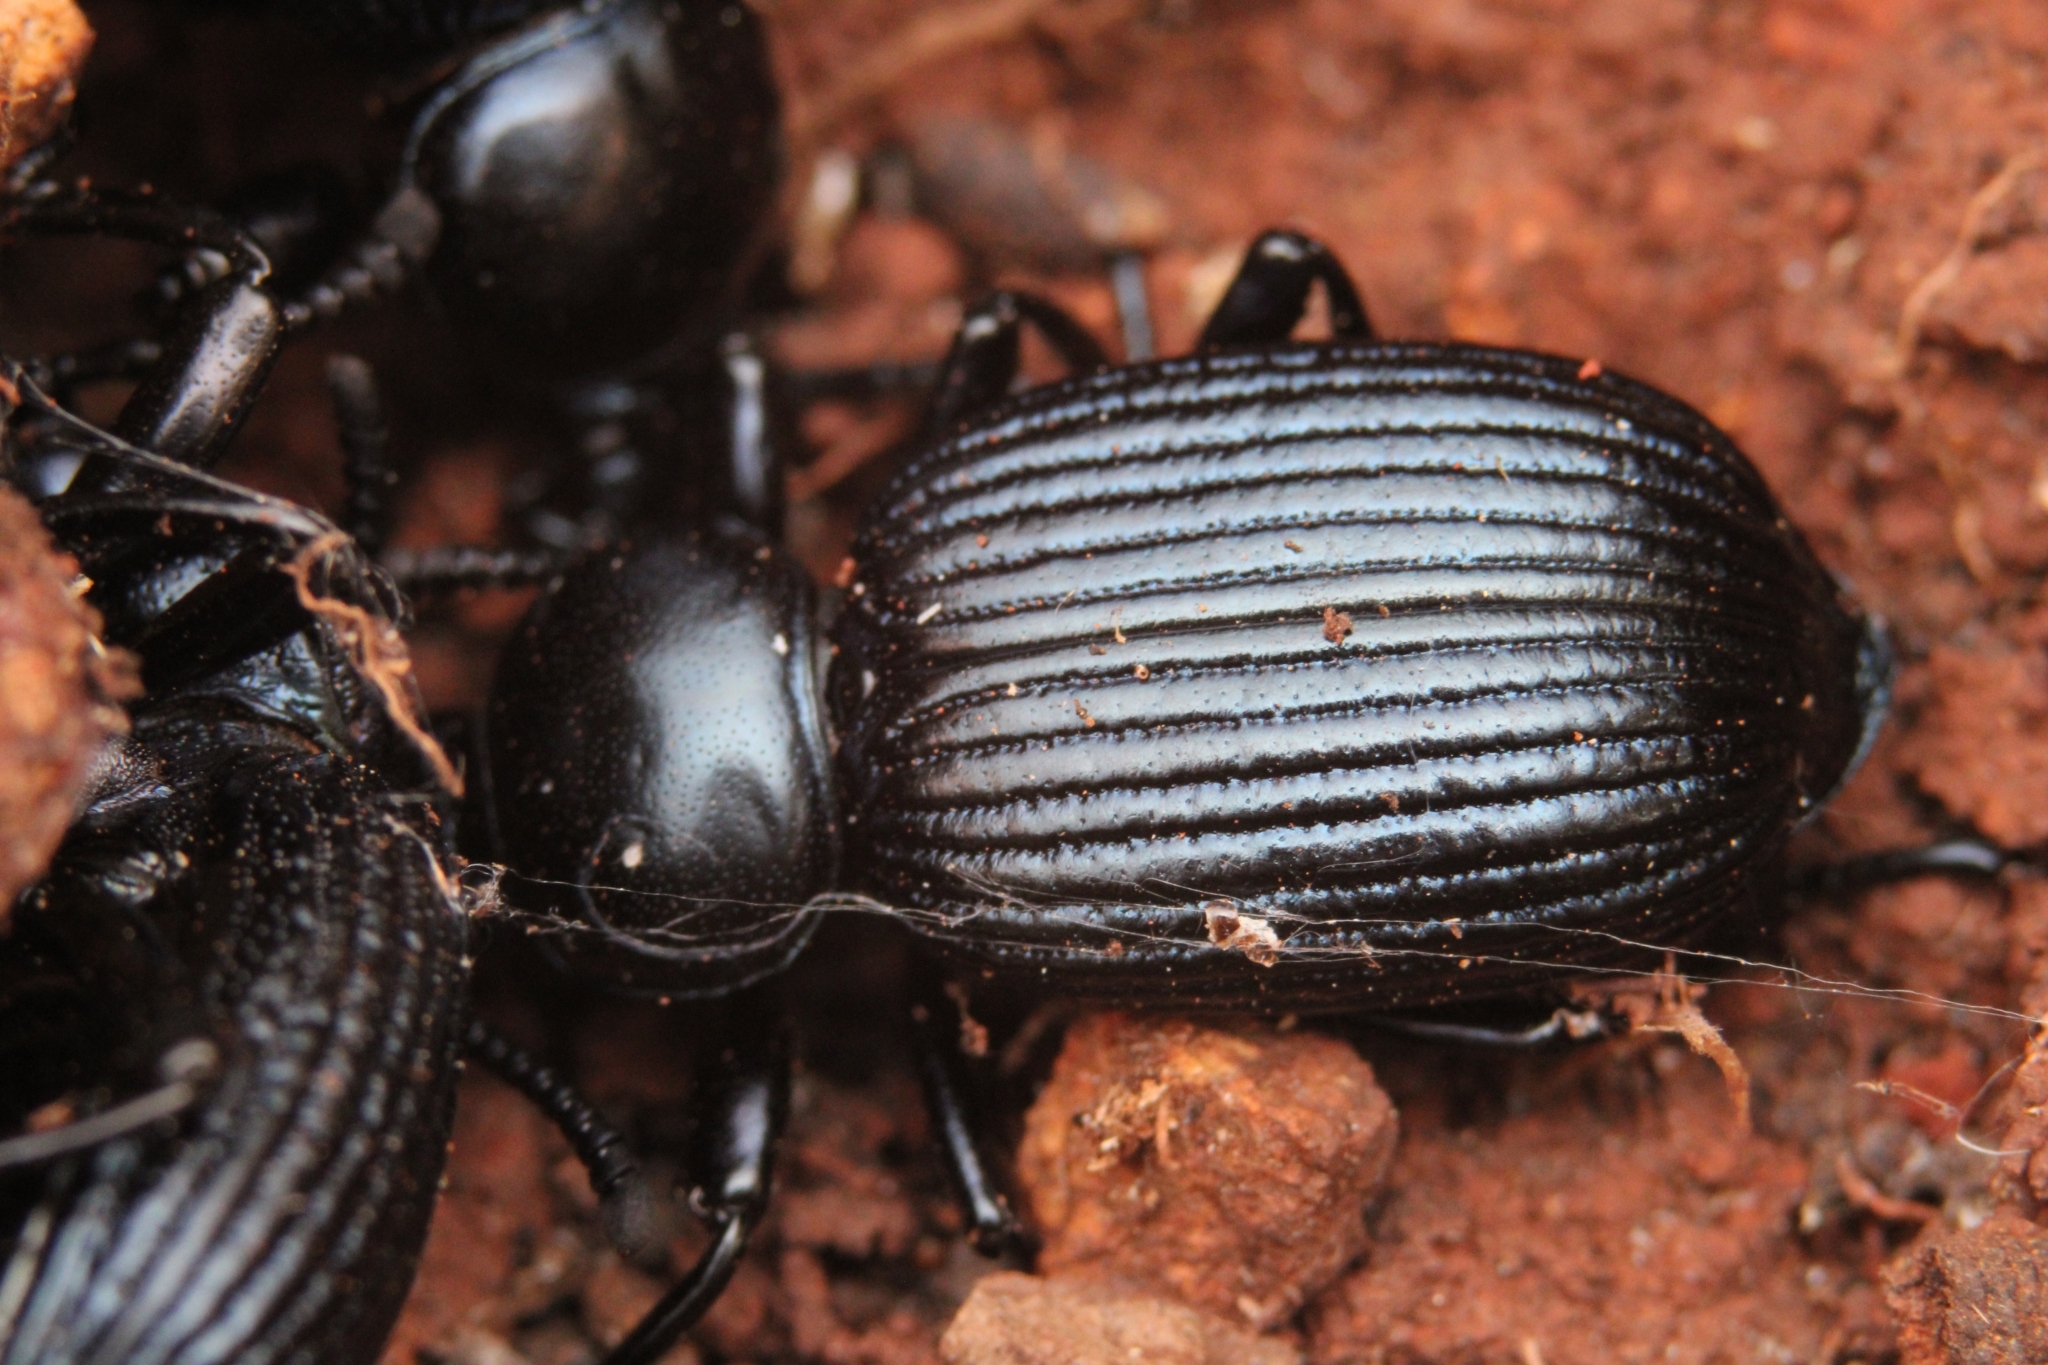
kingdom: Animalia
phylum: Arthropoda
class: Insecta
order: Coleoptera
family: Tenebrionidae
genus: Catamerus
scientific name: Catamerus
